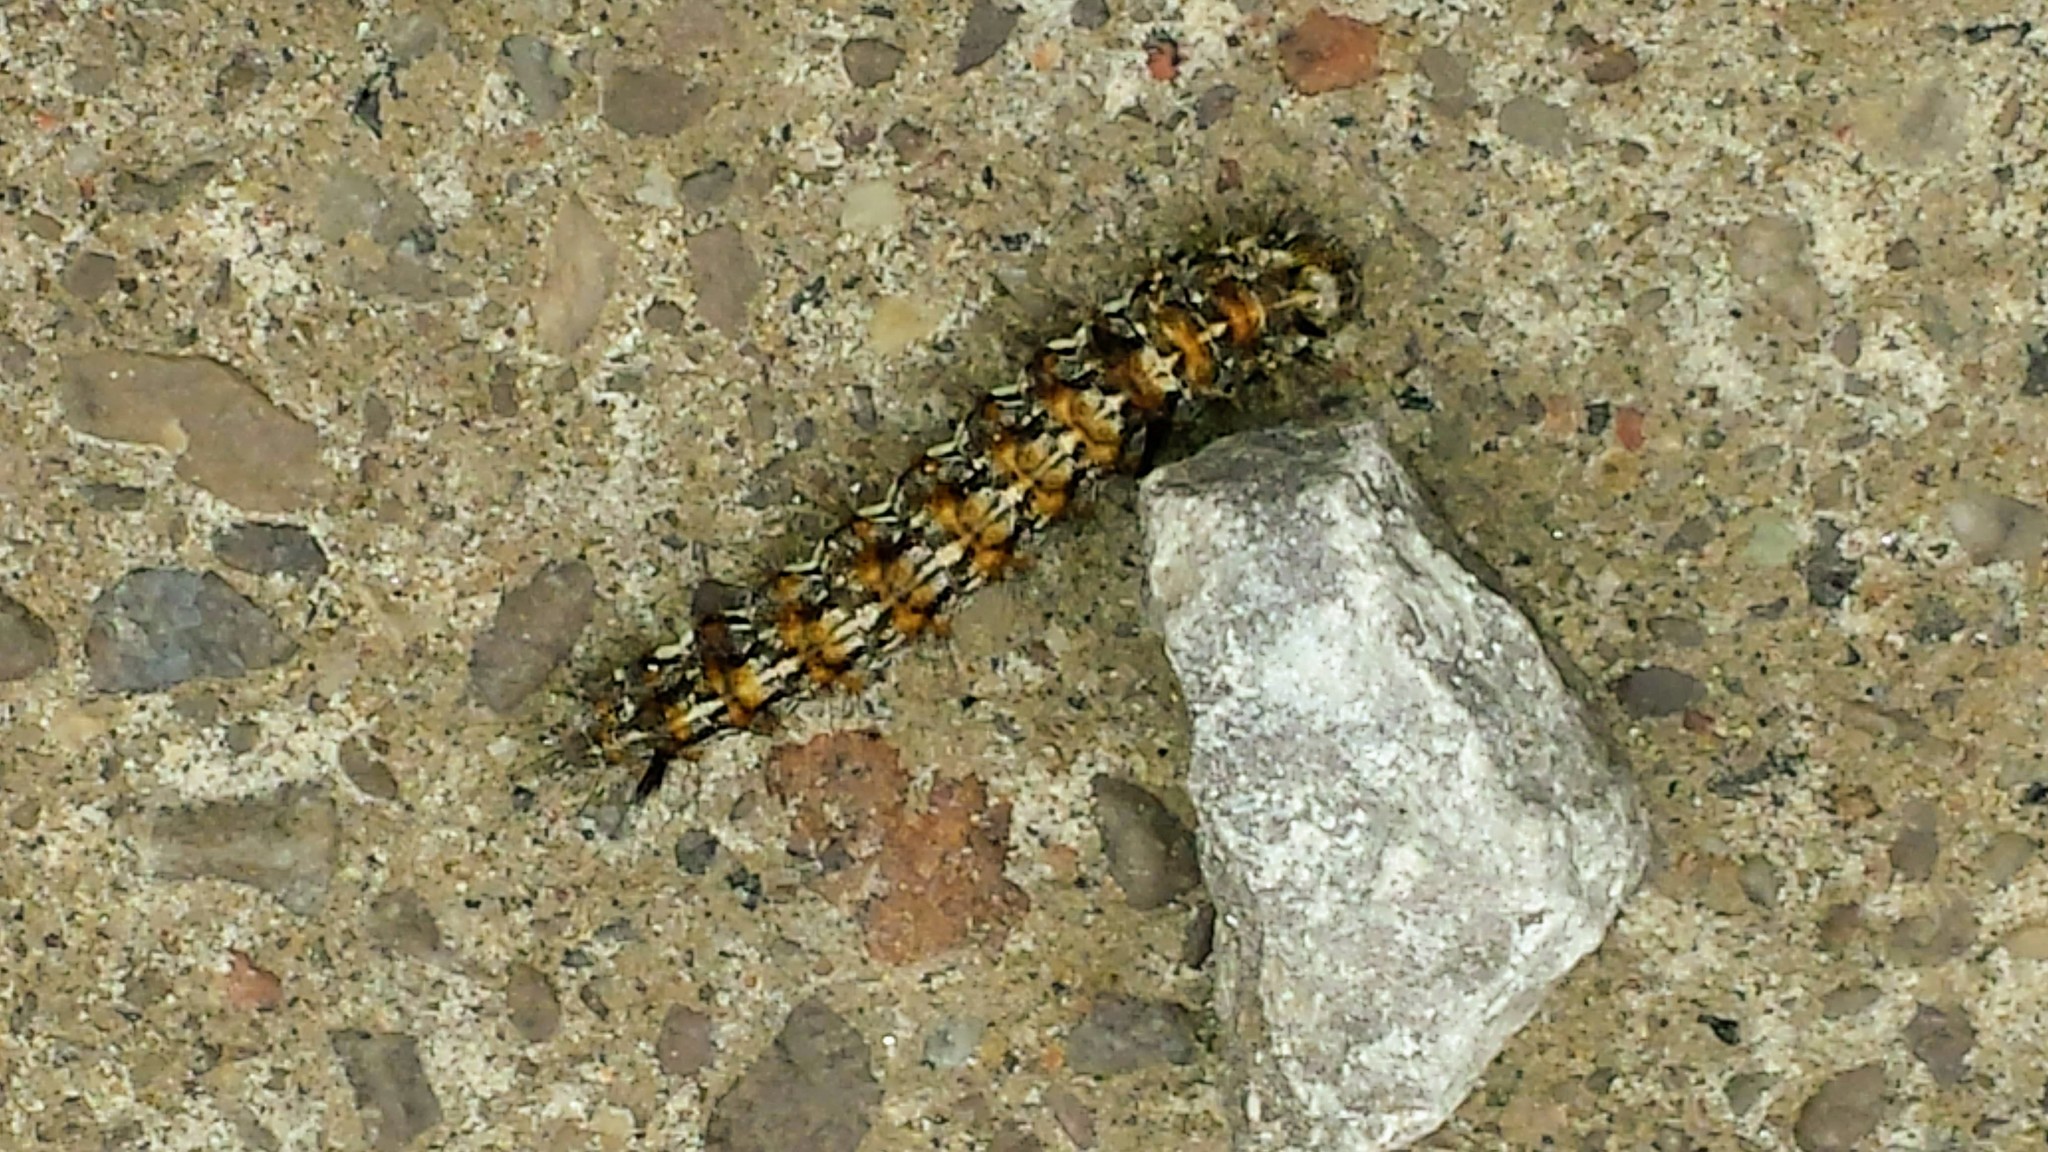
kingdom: Animalia
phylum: Arthropoda
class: Insecta
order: Lepidoptera
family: Noctuidae
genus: Panthea
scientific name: Panthea furcilla
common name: Eastern panthea moth
